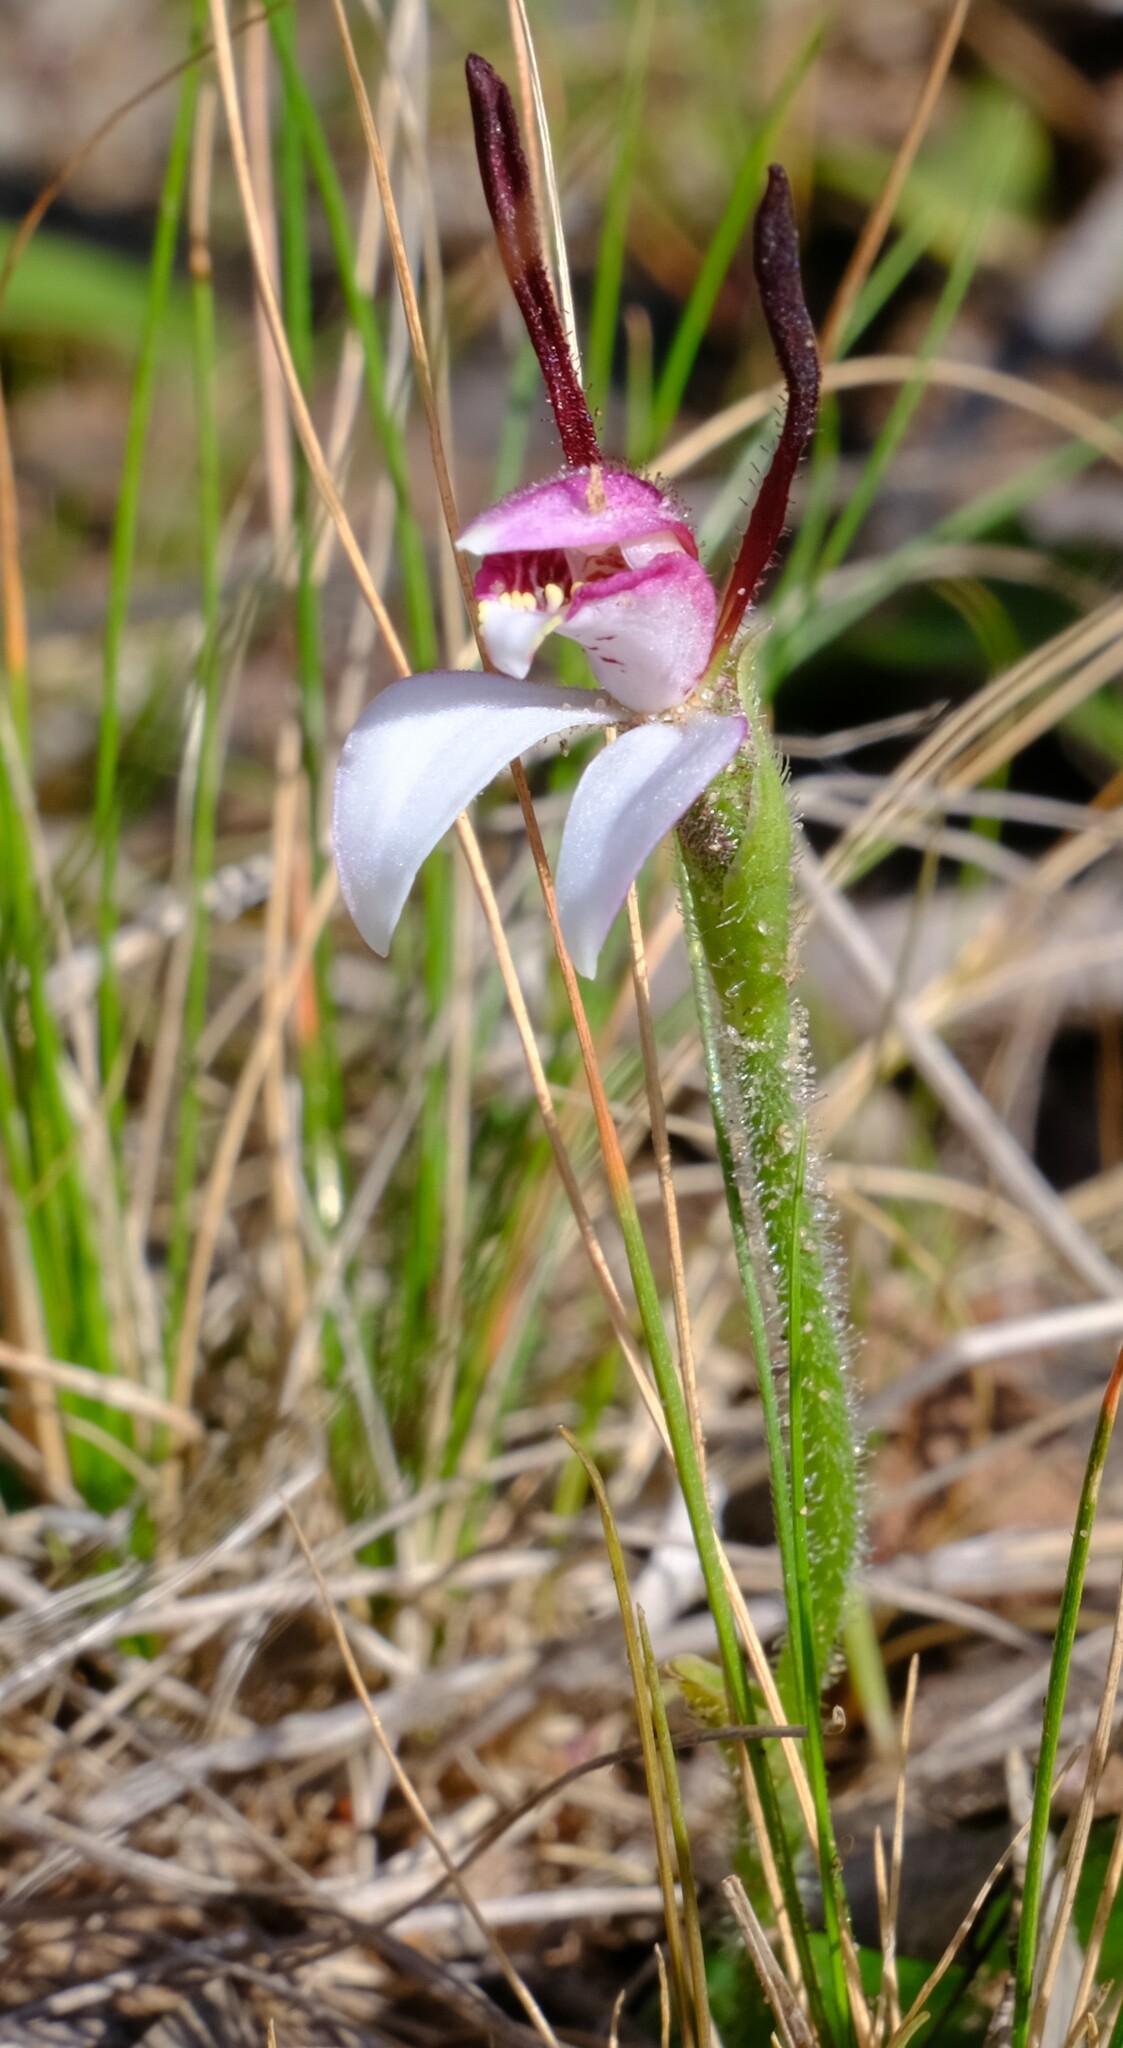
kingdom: Plantae
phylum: Tracheophyta
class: Liliopsida
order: Asparagales
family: Orchidaceae
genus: Leptoceras
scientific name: Leptoceras menziesii
